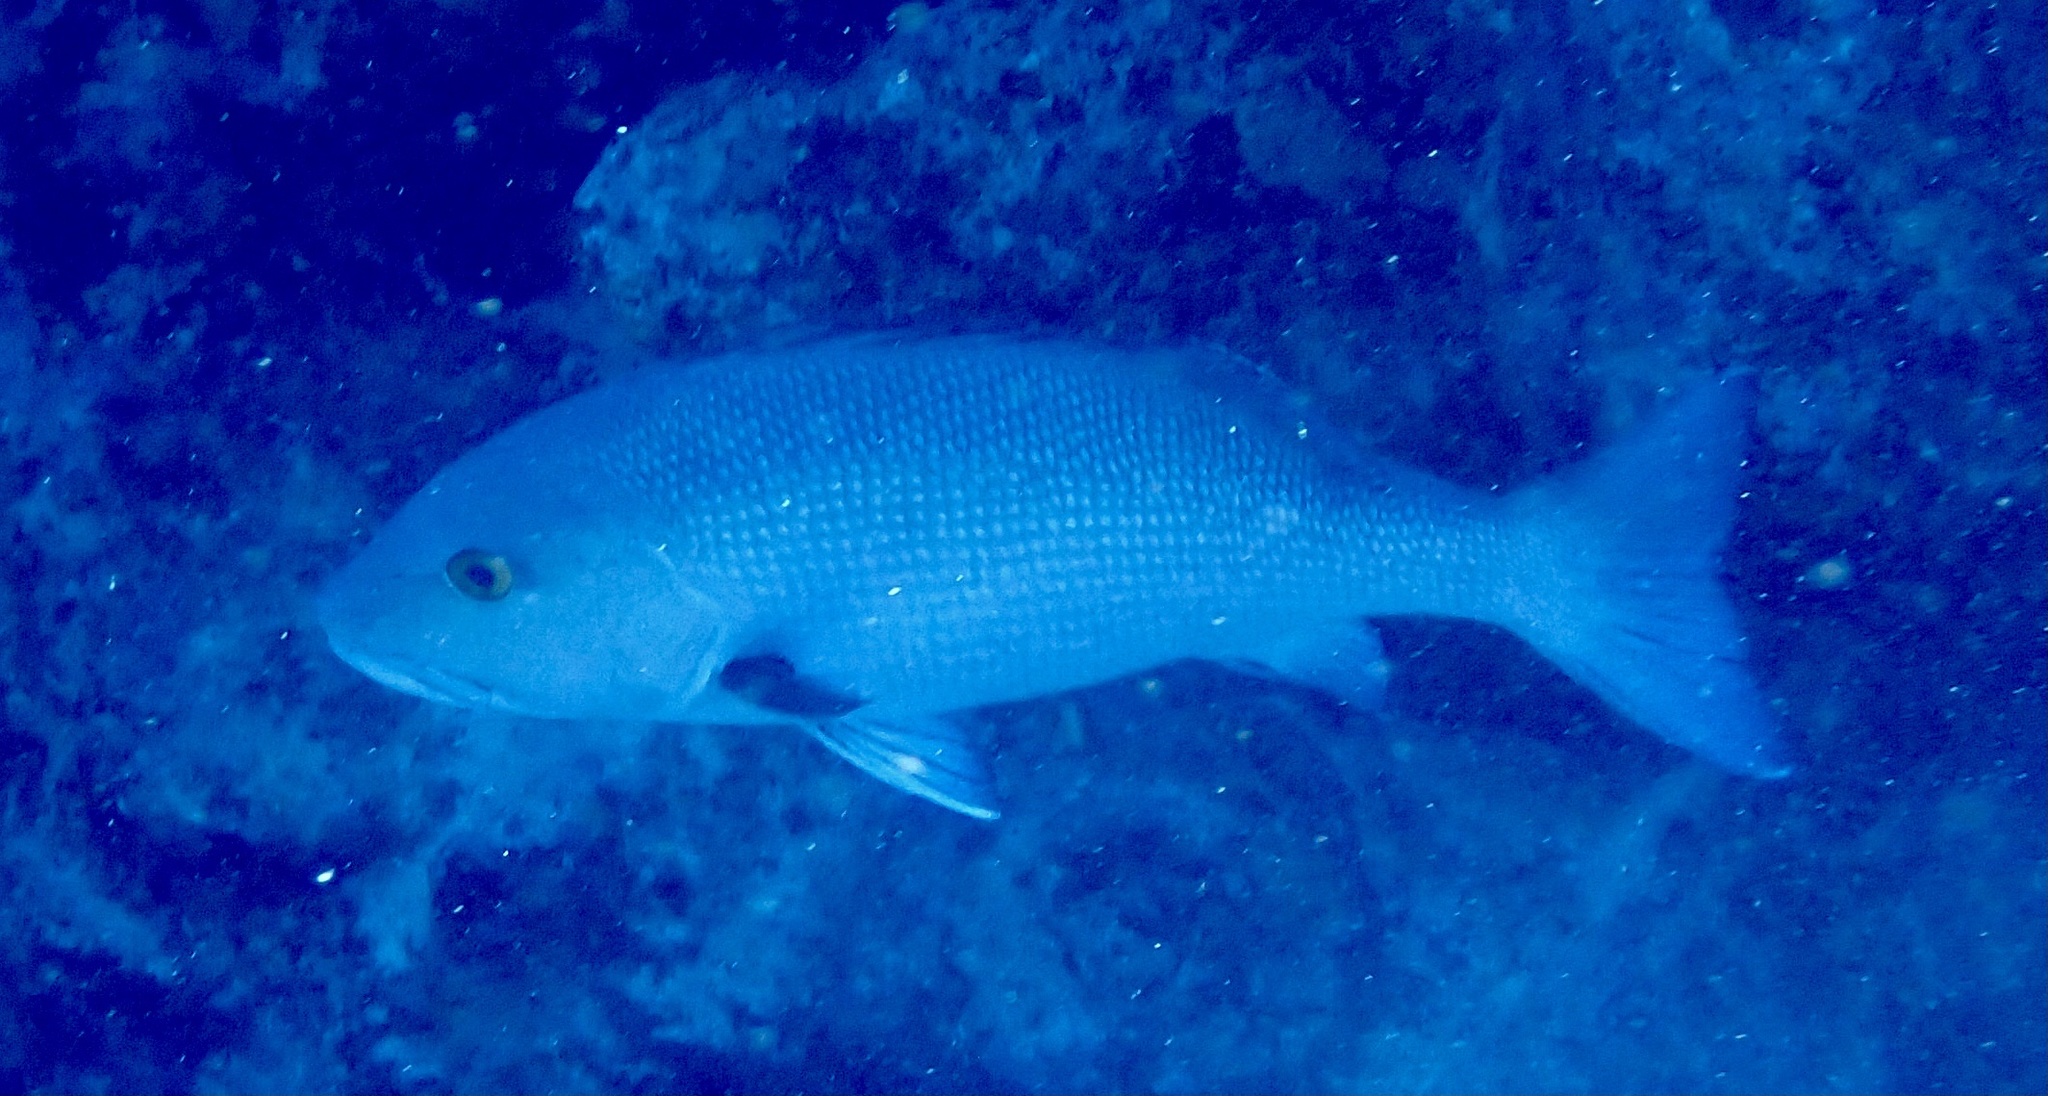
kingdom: Animalia
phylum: Chordata
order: Perciformes
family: Lutjanidae
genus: Lutjanus
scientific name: Lutjanus bohar
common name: Red bass
